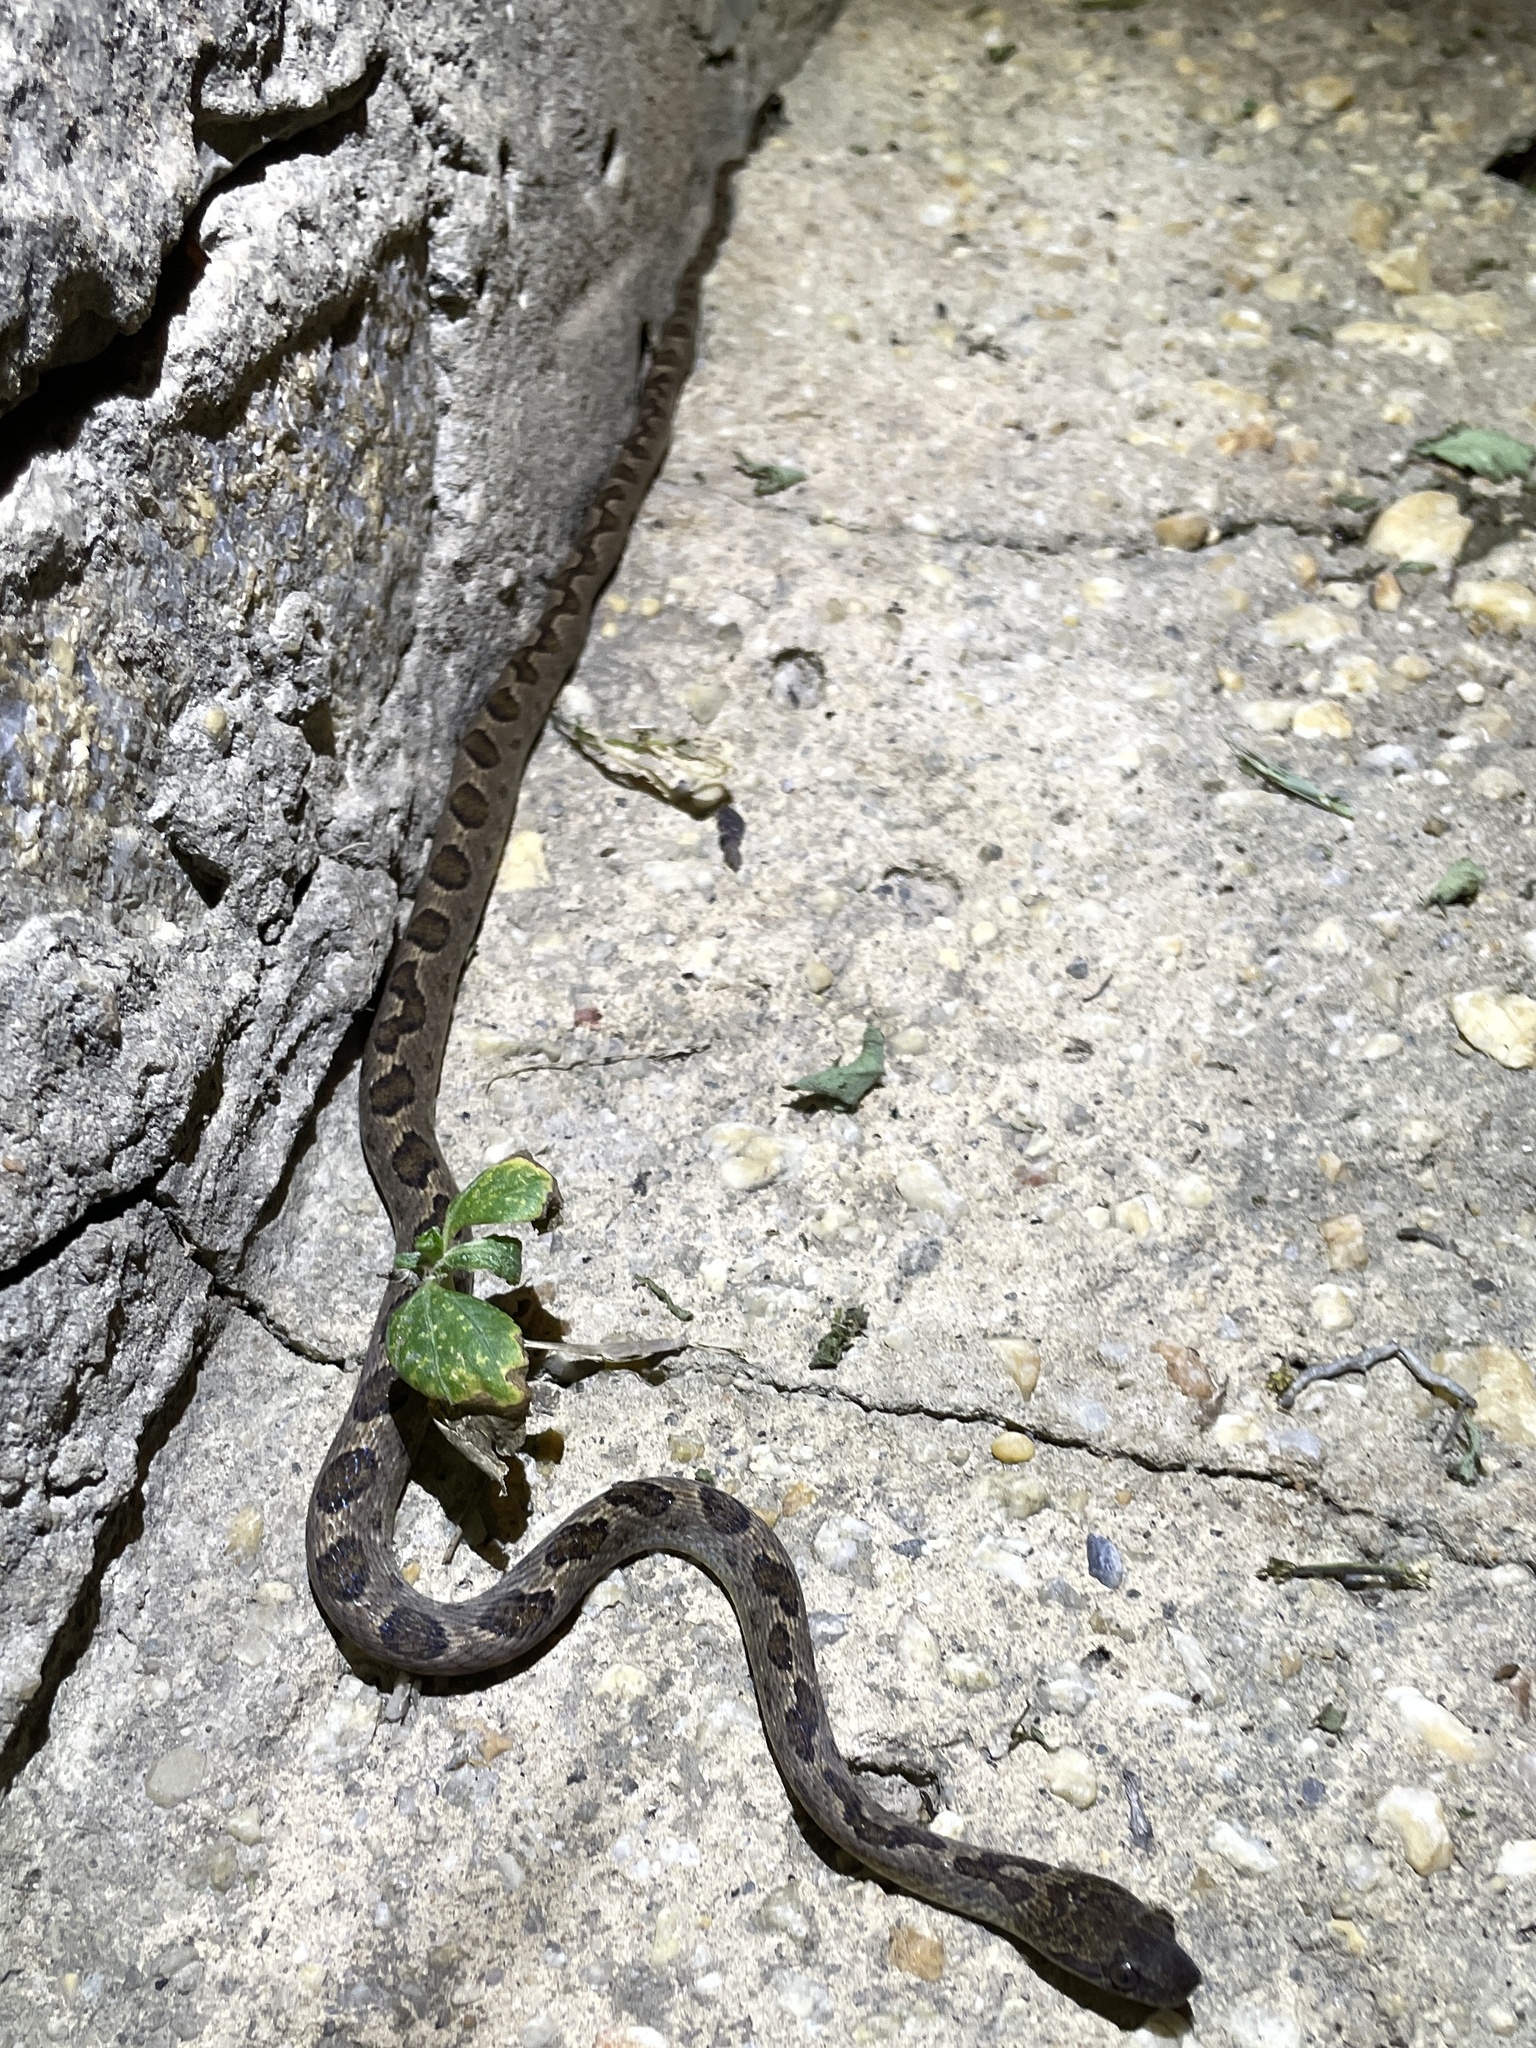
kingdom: Animalia
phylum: Chordata
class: Squamata
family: Colubridae
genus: Leptodeira
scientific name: Leptodeira ashmeadii
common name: Banded cat-eyed snake
